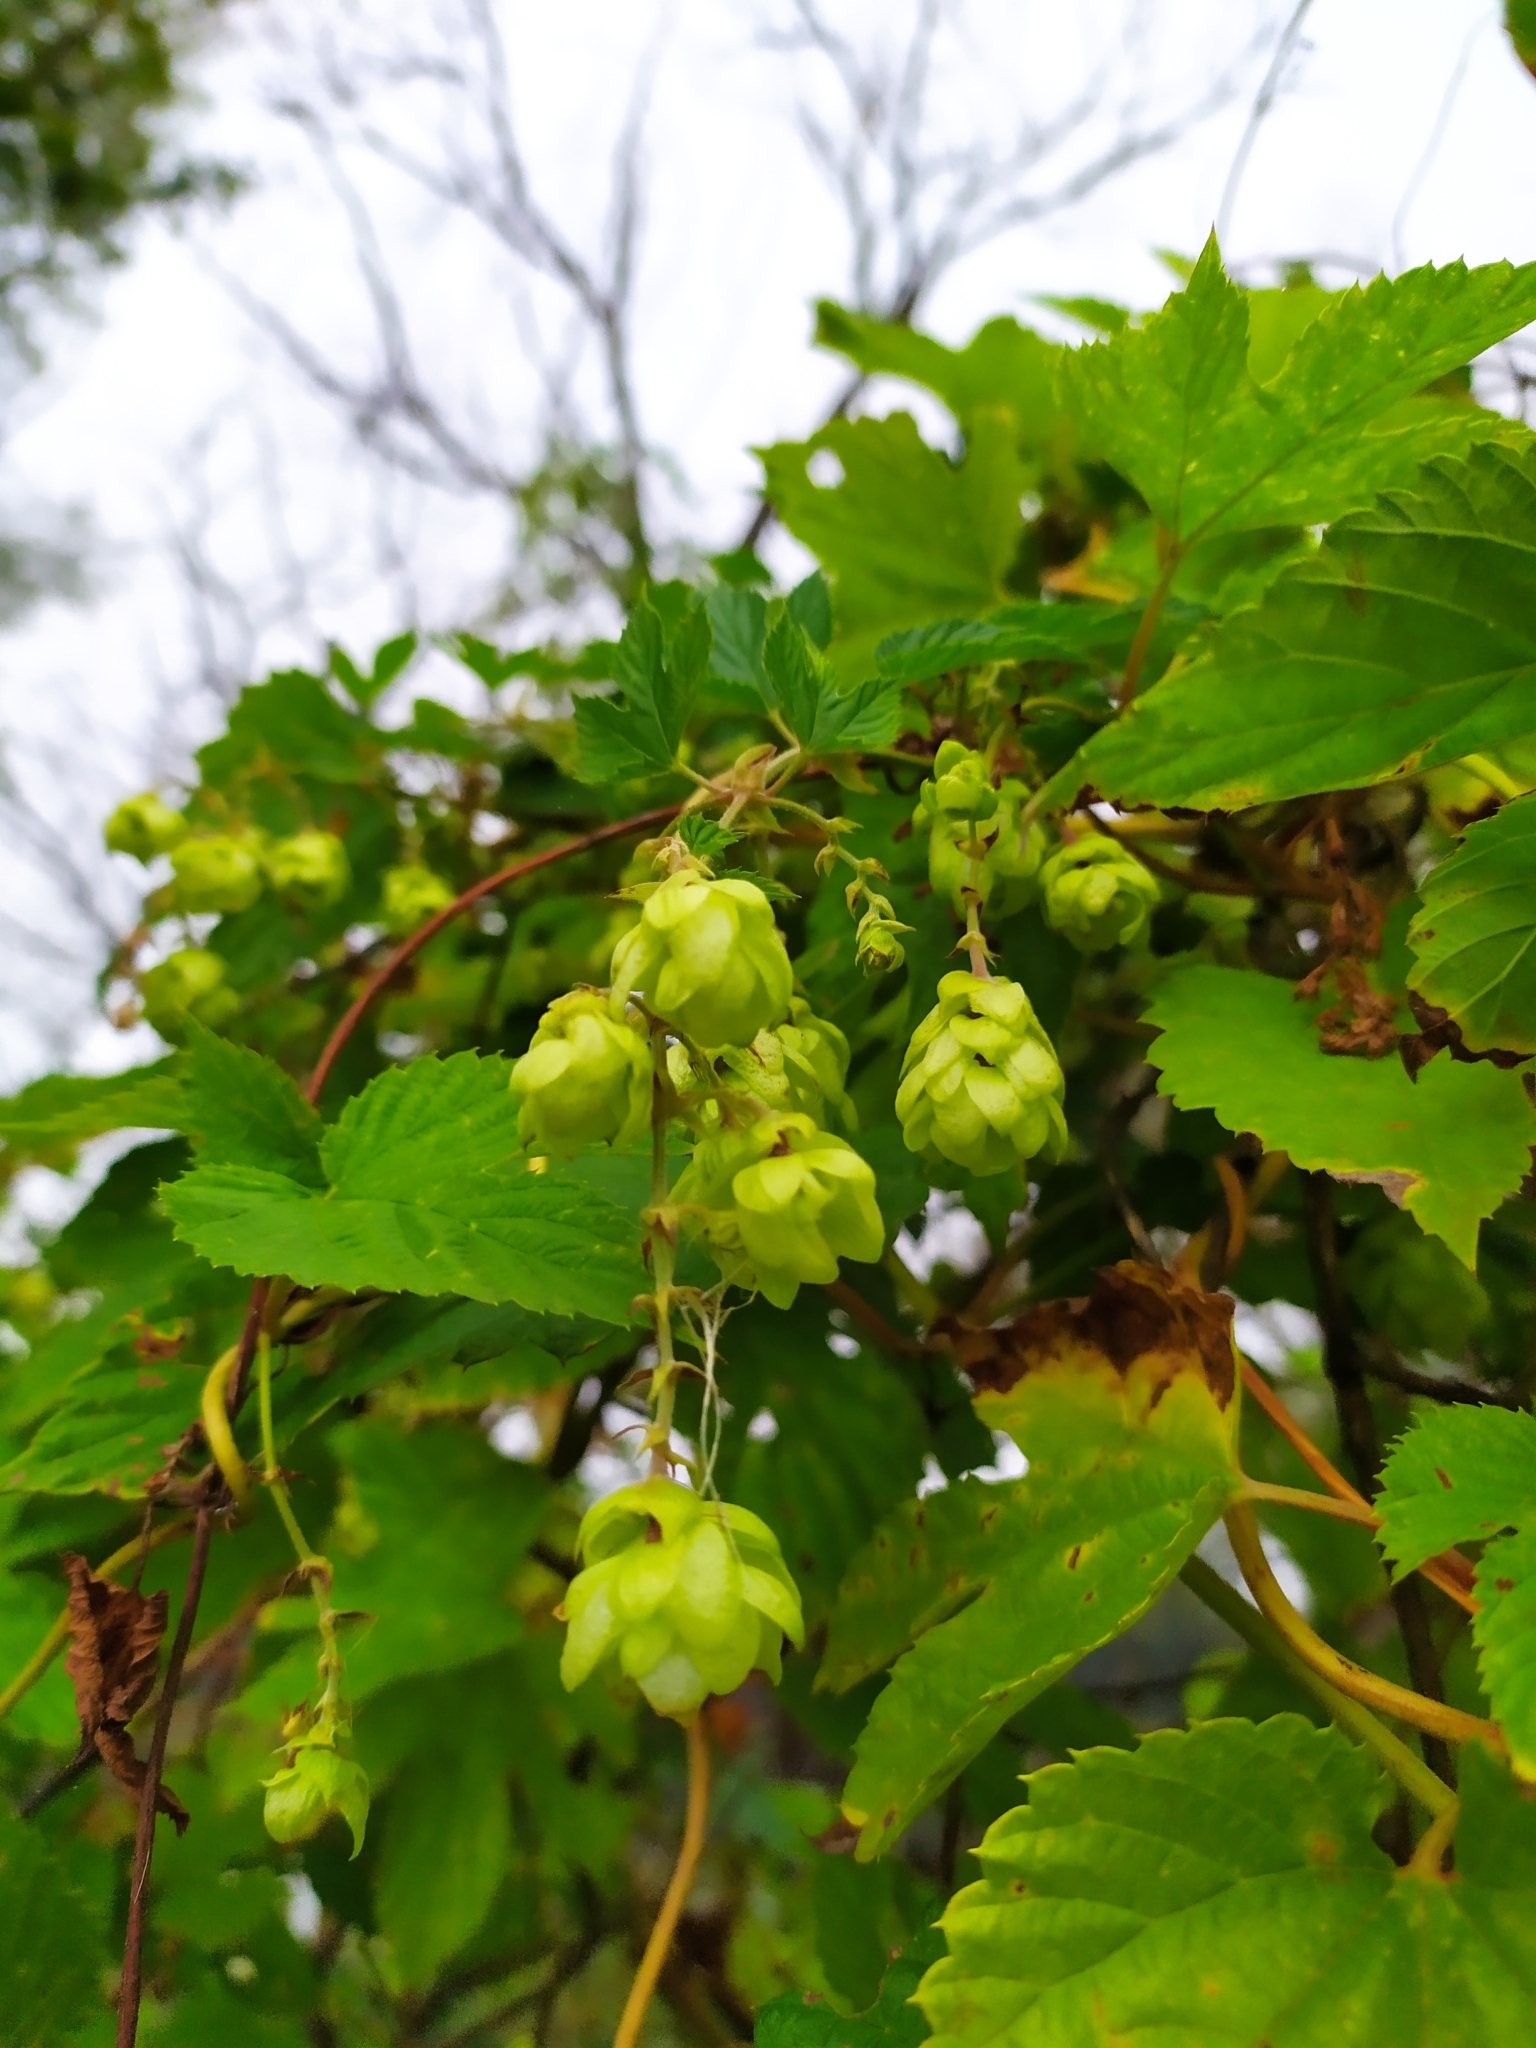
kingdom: Plantae
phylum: Tracheophyta
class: Magnoliopsida
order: Rosales
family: Cannabaceae
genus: Humulus
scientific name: Humulus lupulus
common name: Hop
